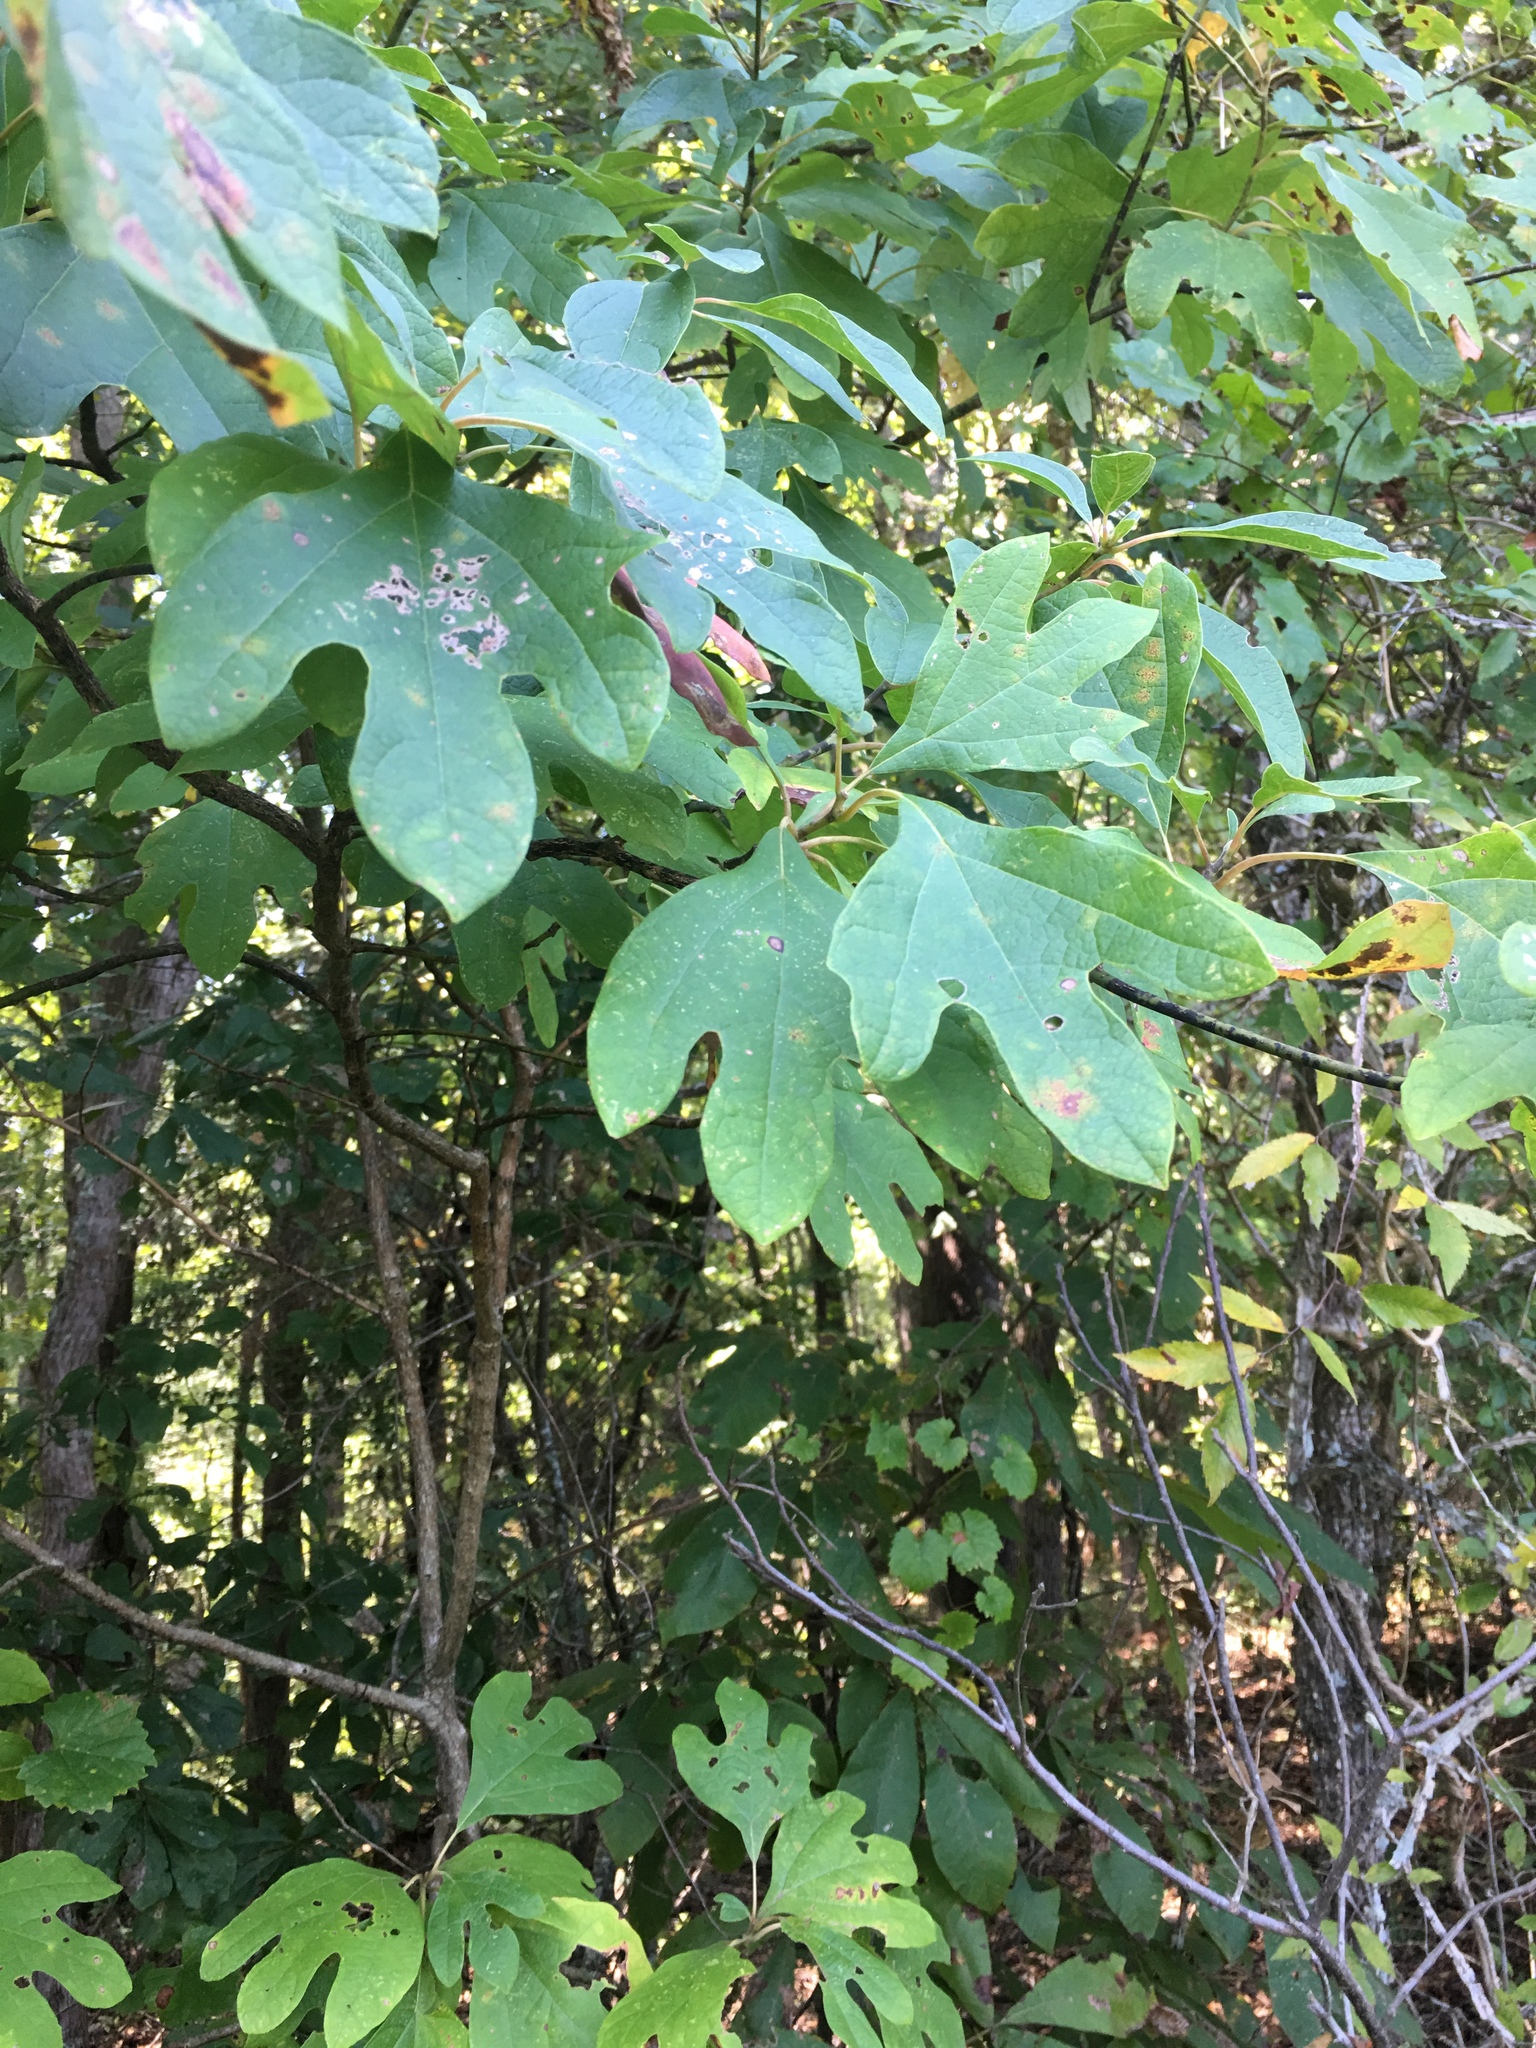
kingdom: Plantae
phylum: Tracheophyta
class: Magnoliopsida
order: Laurales
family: Lauraceae
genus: Sassafras
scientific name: Sassafras albidum
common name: Sassafras
